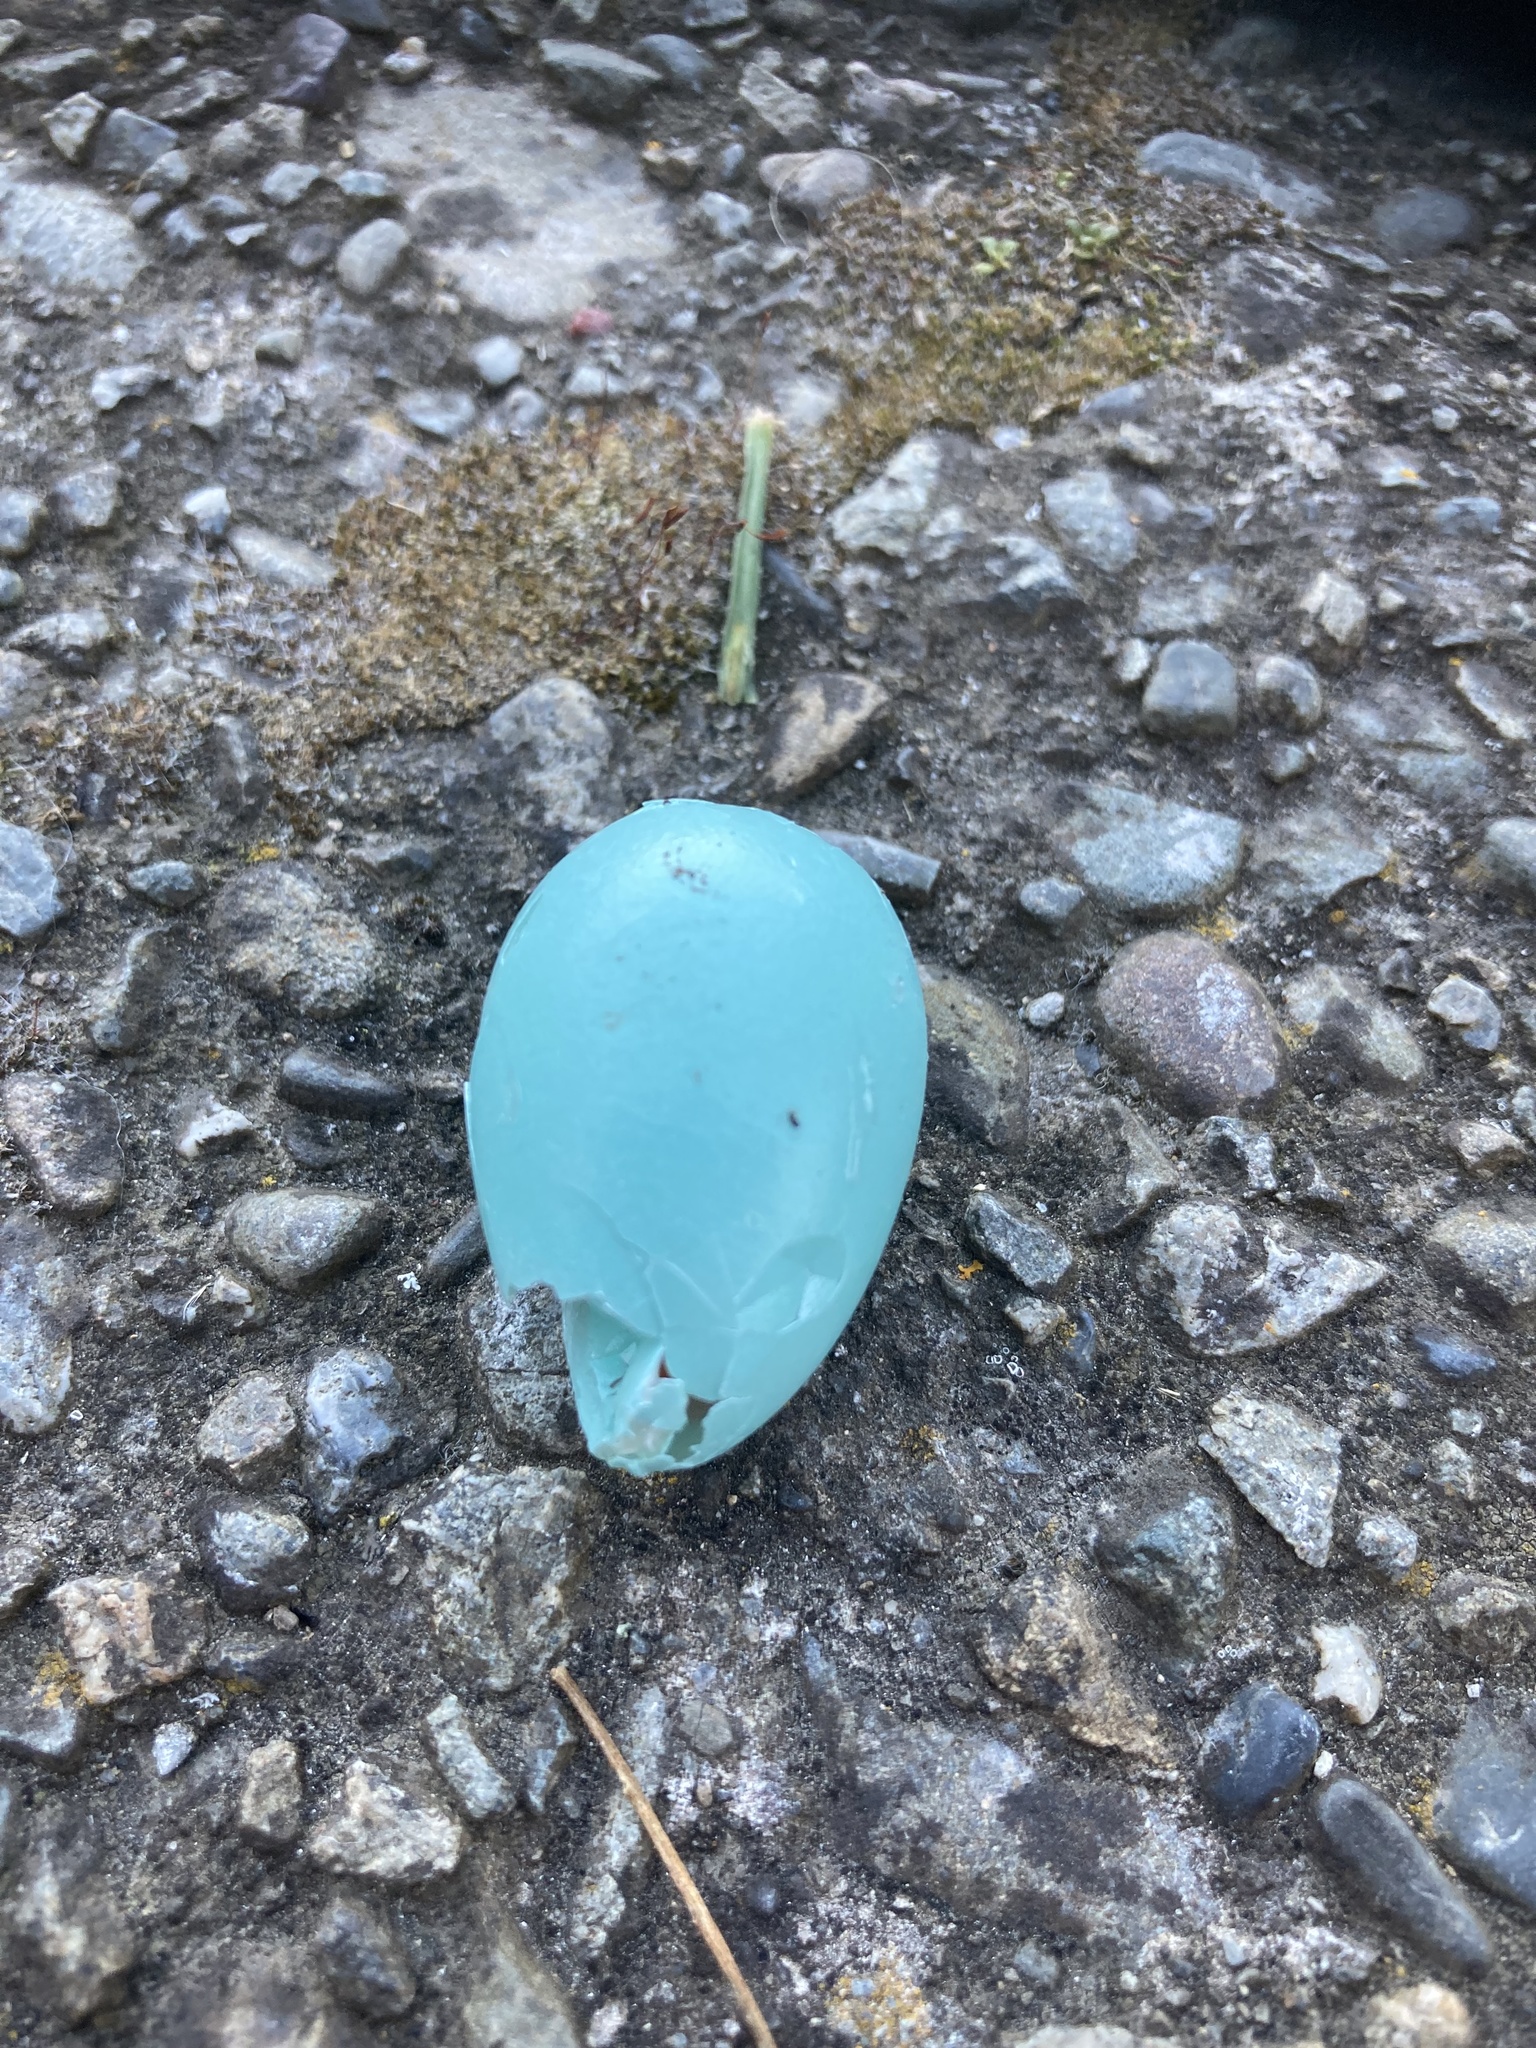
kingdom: Animalia
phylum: Chordata
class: Aves
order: Passeriformes
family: Sturnidae
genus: Sturnus
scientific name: Sturnus vulgaris
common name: Common starling
